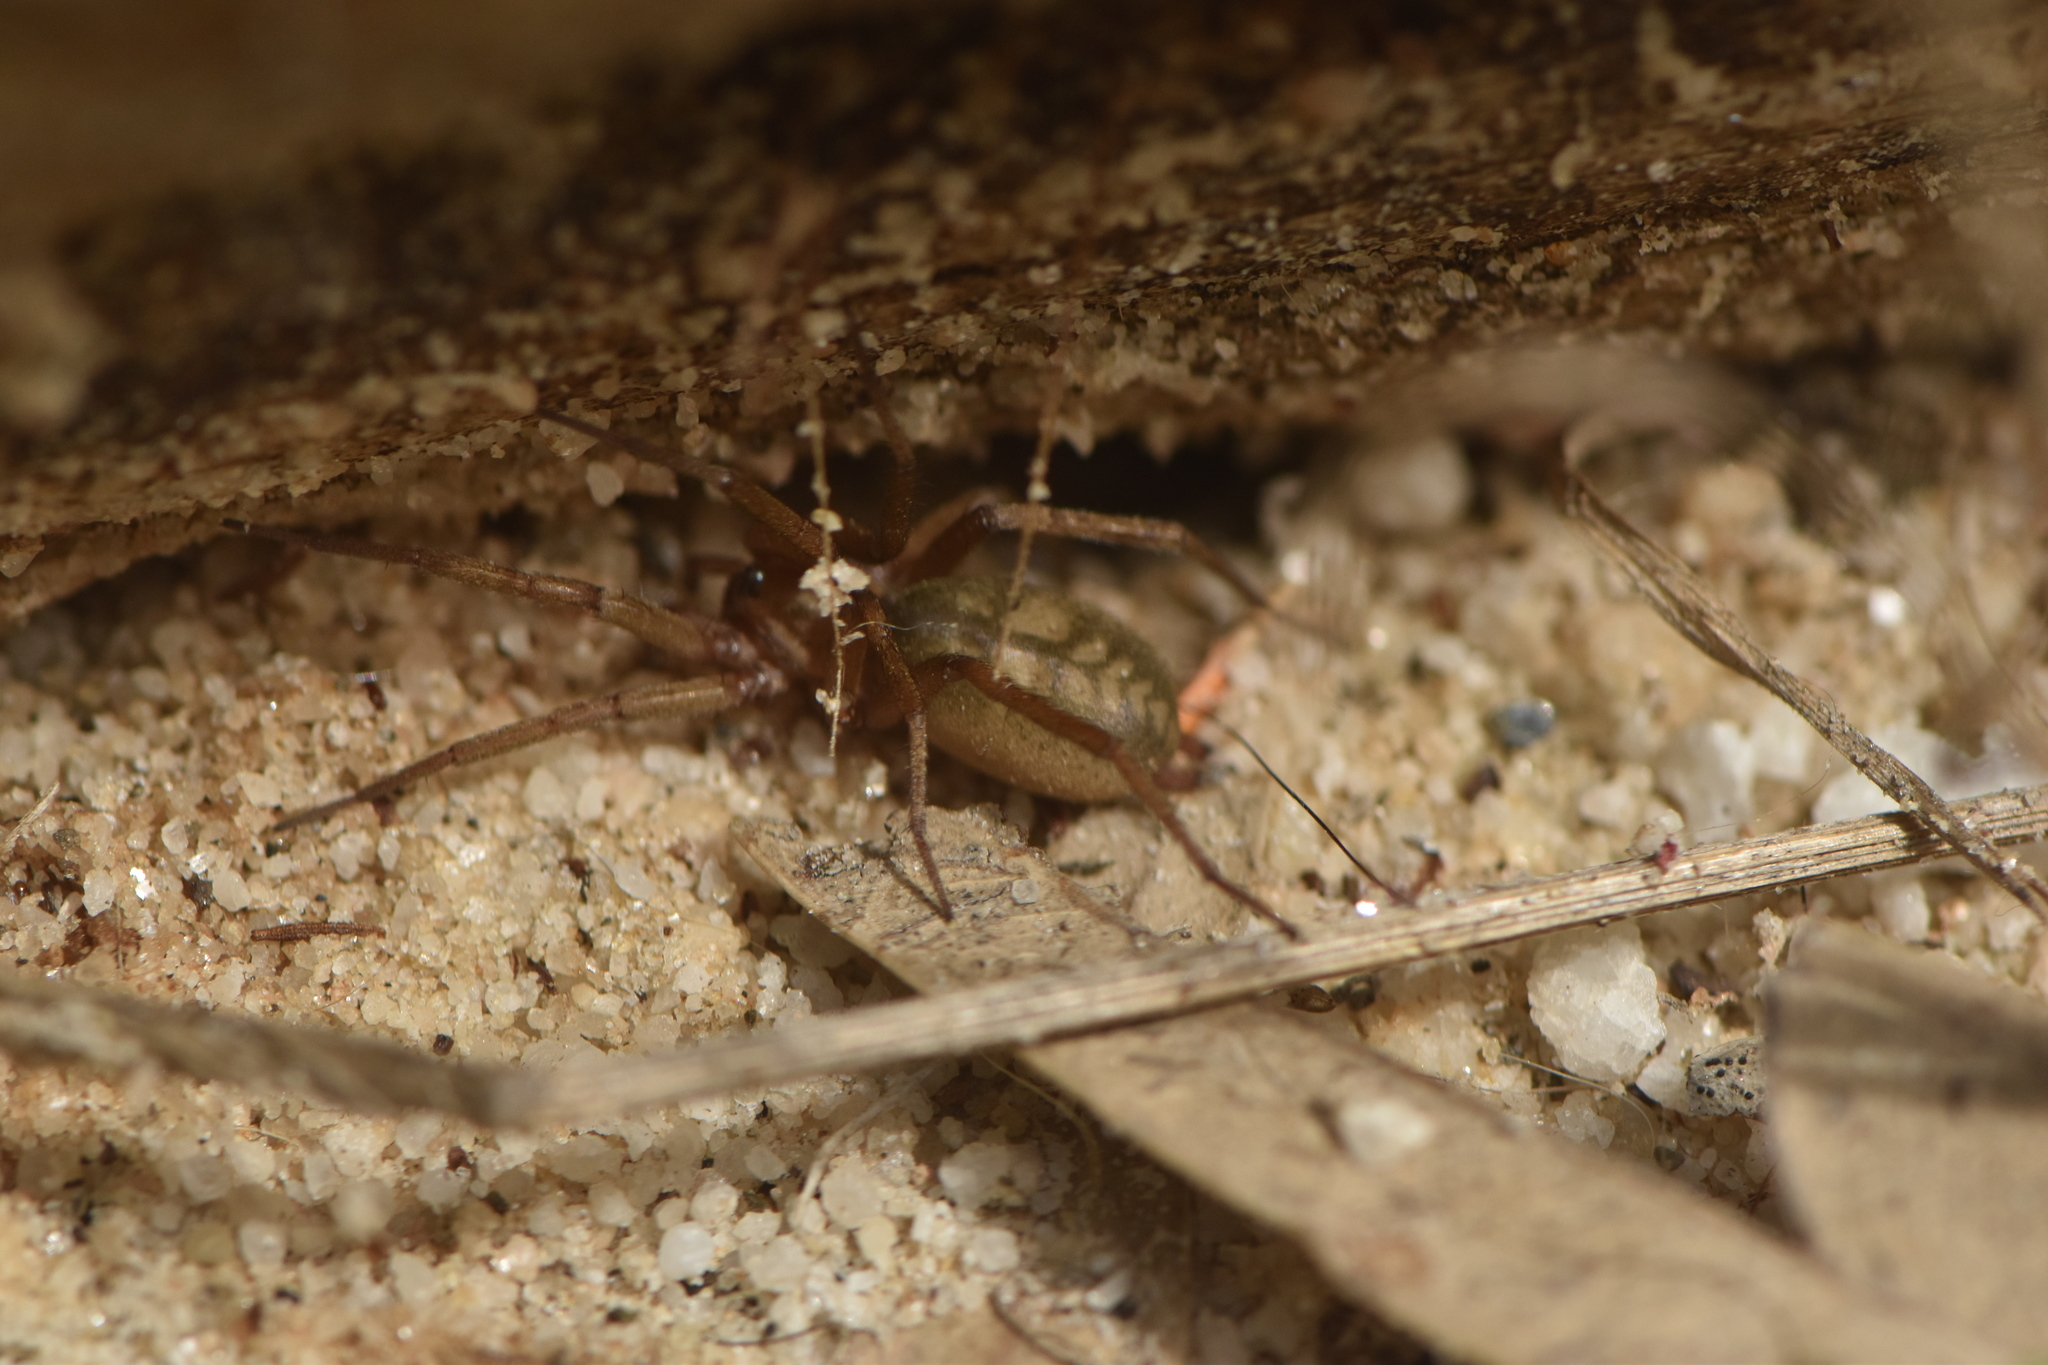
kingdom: Animalia
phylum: Arthropoda
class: Arachnida
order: Araneae
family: Gnaphosidae
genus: Pterotricha
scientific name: Pterotricha simoni
